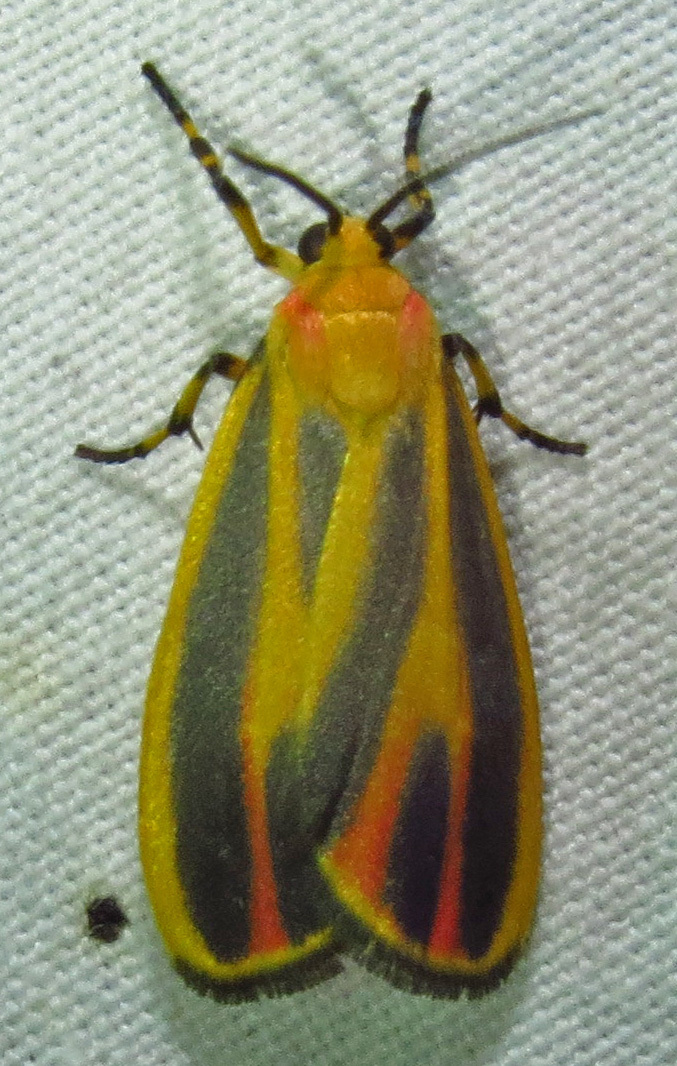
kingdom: Animalia
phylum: Arthropoda
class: Insecta
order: Lepidoptera
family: Erebidae
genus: Hypoprepia
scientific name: Hypoprepia fucosa
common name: Painted lichen moth
